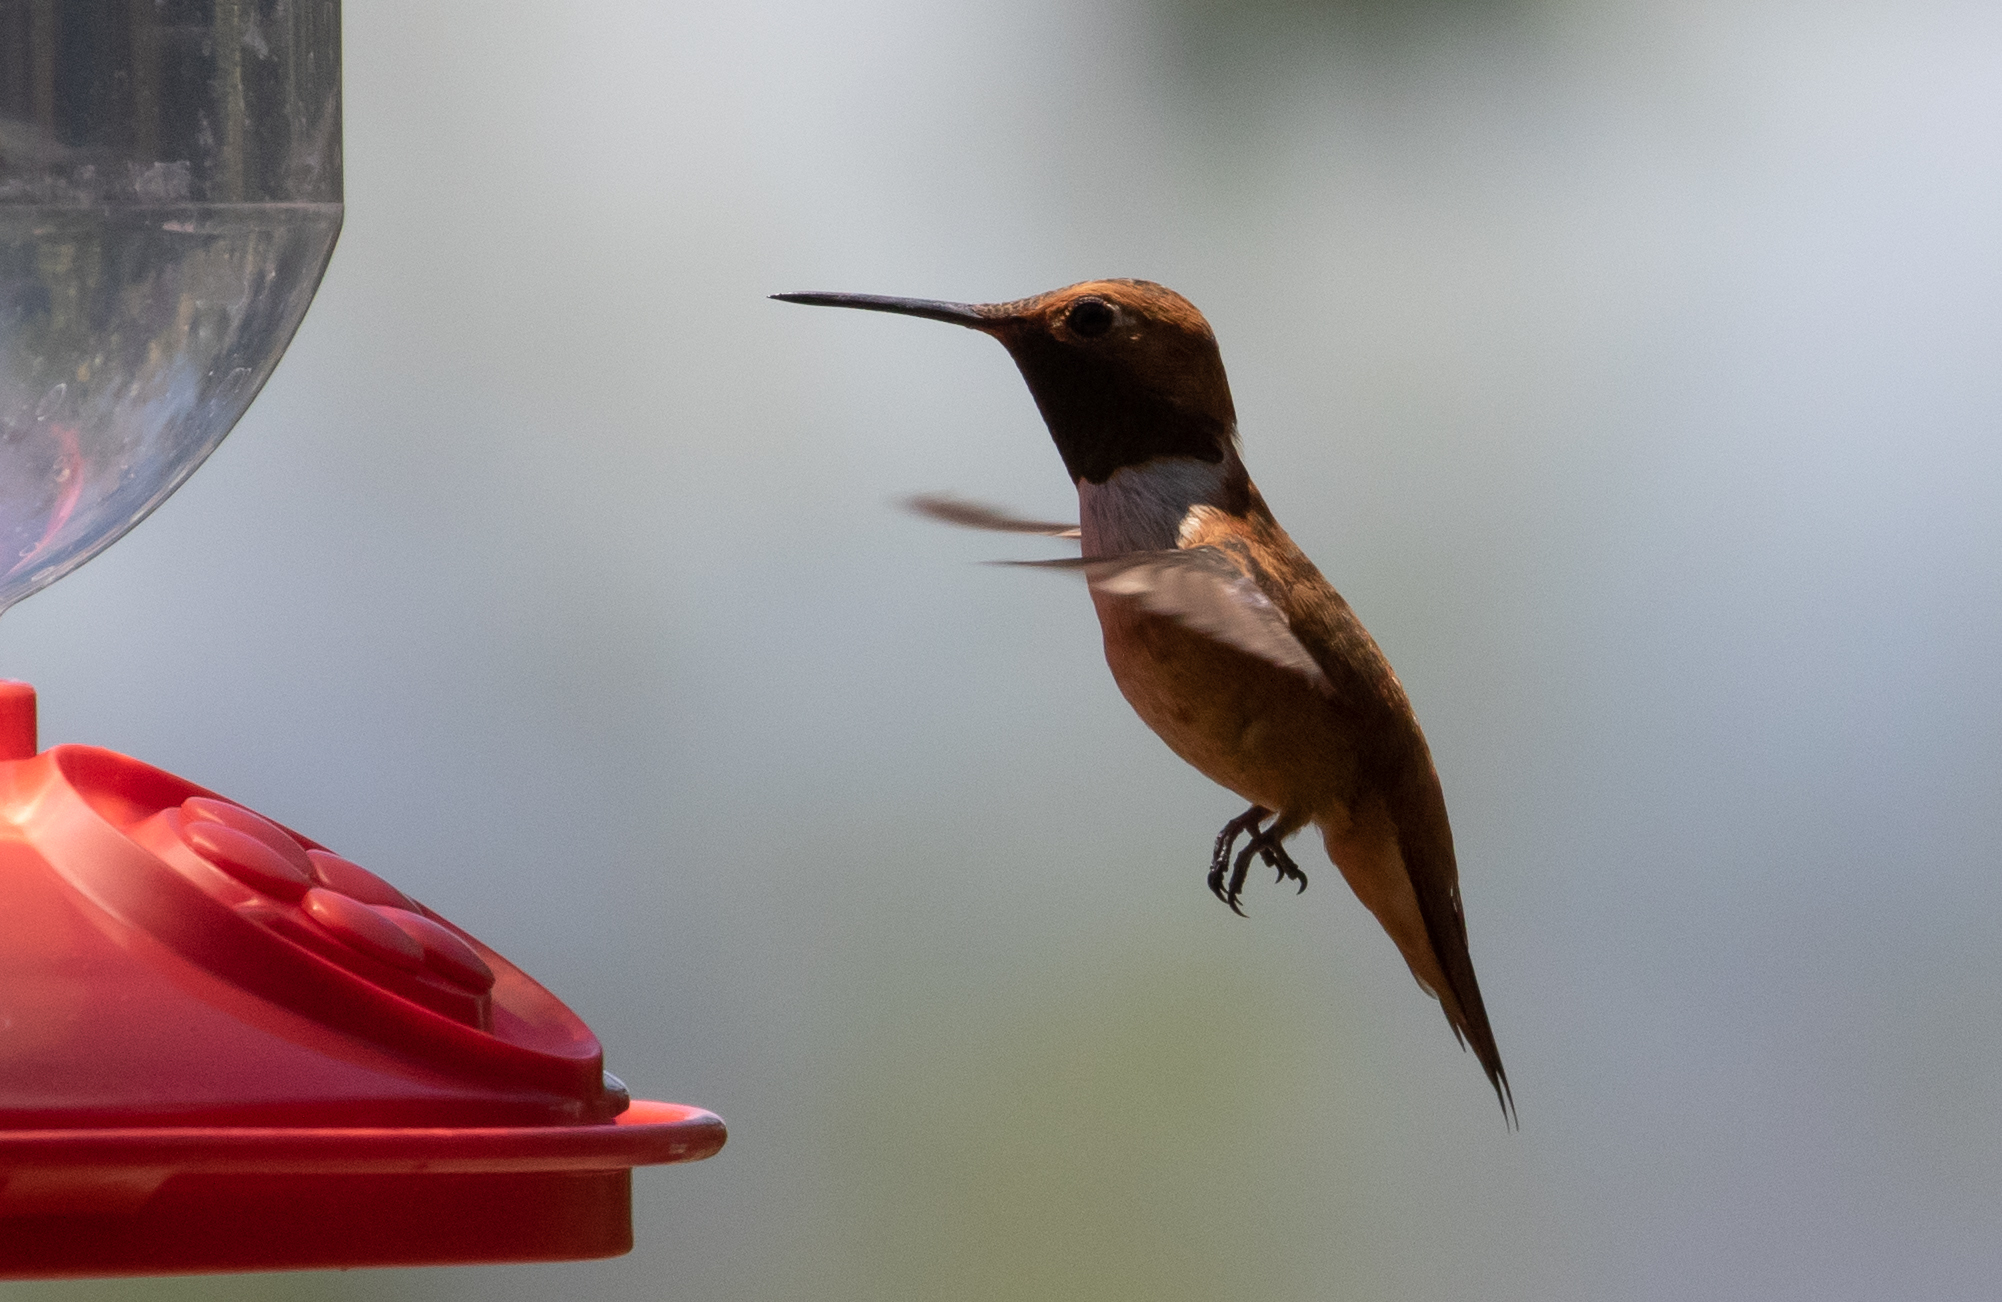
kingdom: Animalia
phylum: Chordata
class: Aves
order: Apodiformes
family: Trochilidae
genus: Selasphorus
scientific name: Selasphorus rufus
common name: Rufous hummingbird
